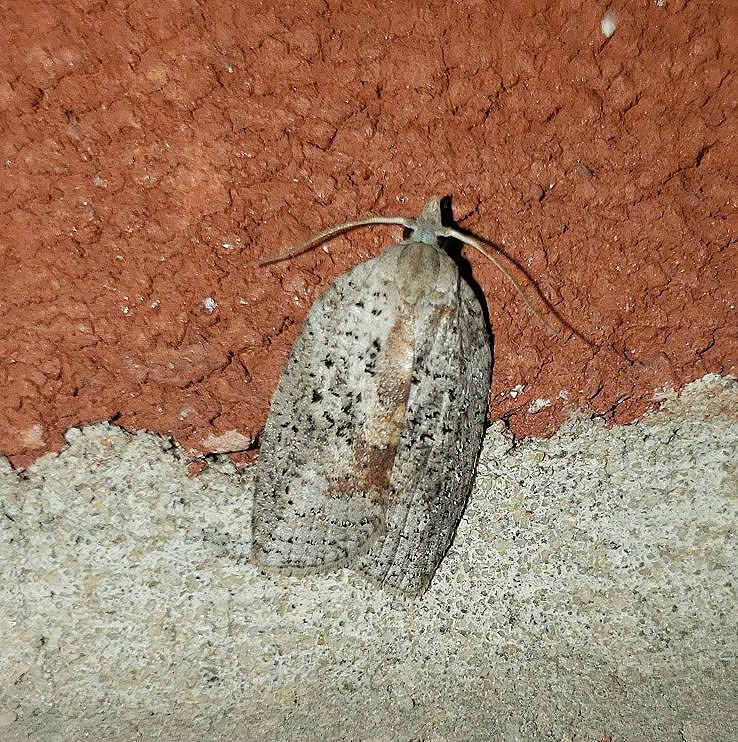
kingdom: Animalia
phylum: Arthropoda
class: Insecta
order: Lepidoptera
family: Tortricidae
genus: Amorbia
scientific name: Amorbia humerosana
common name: White-lined leafroller moth
